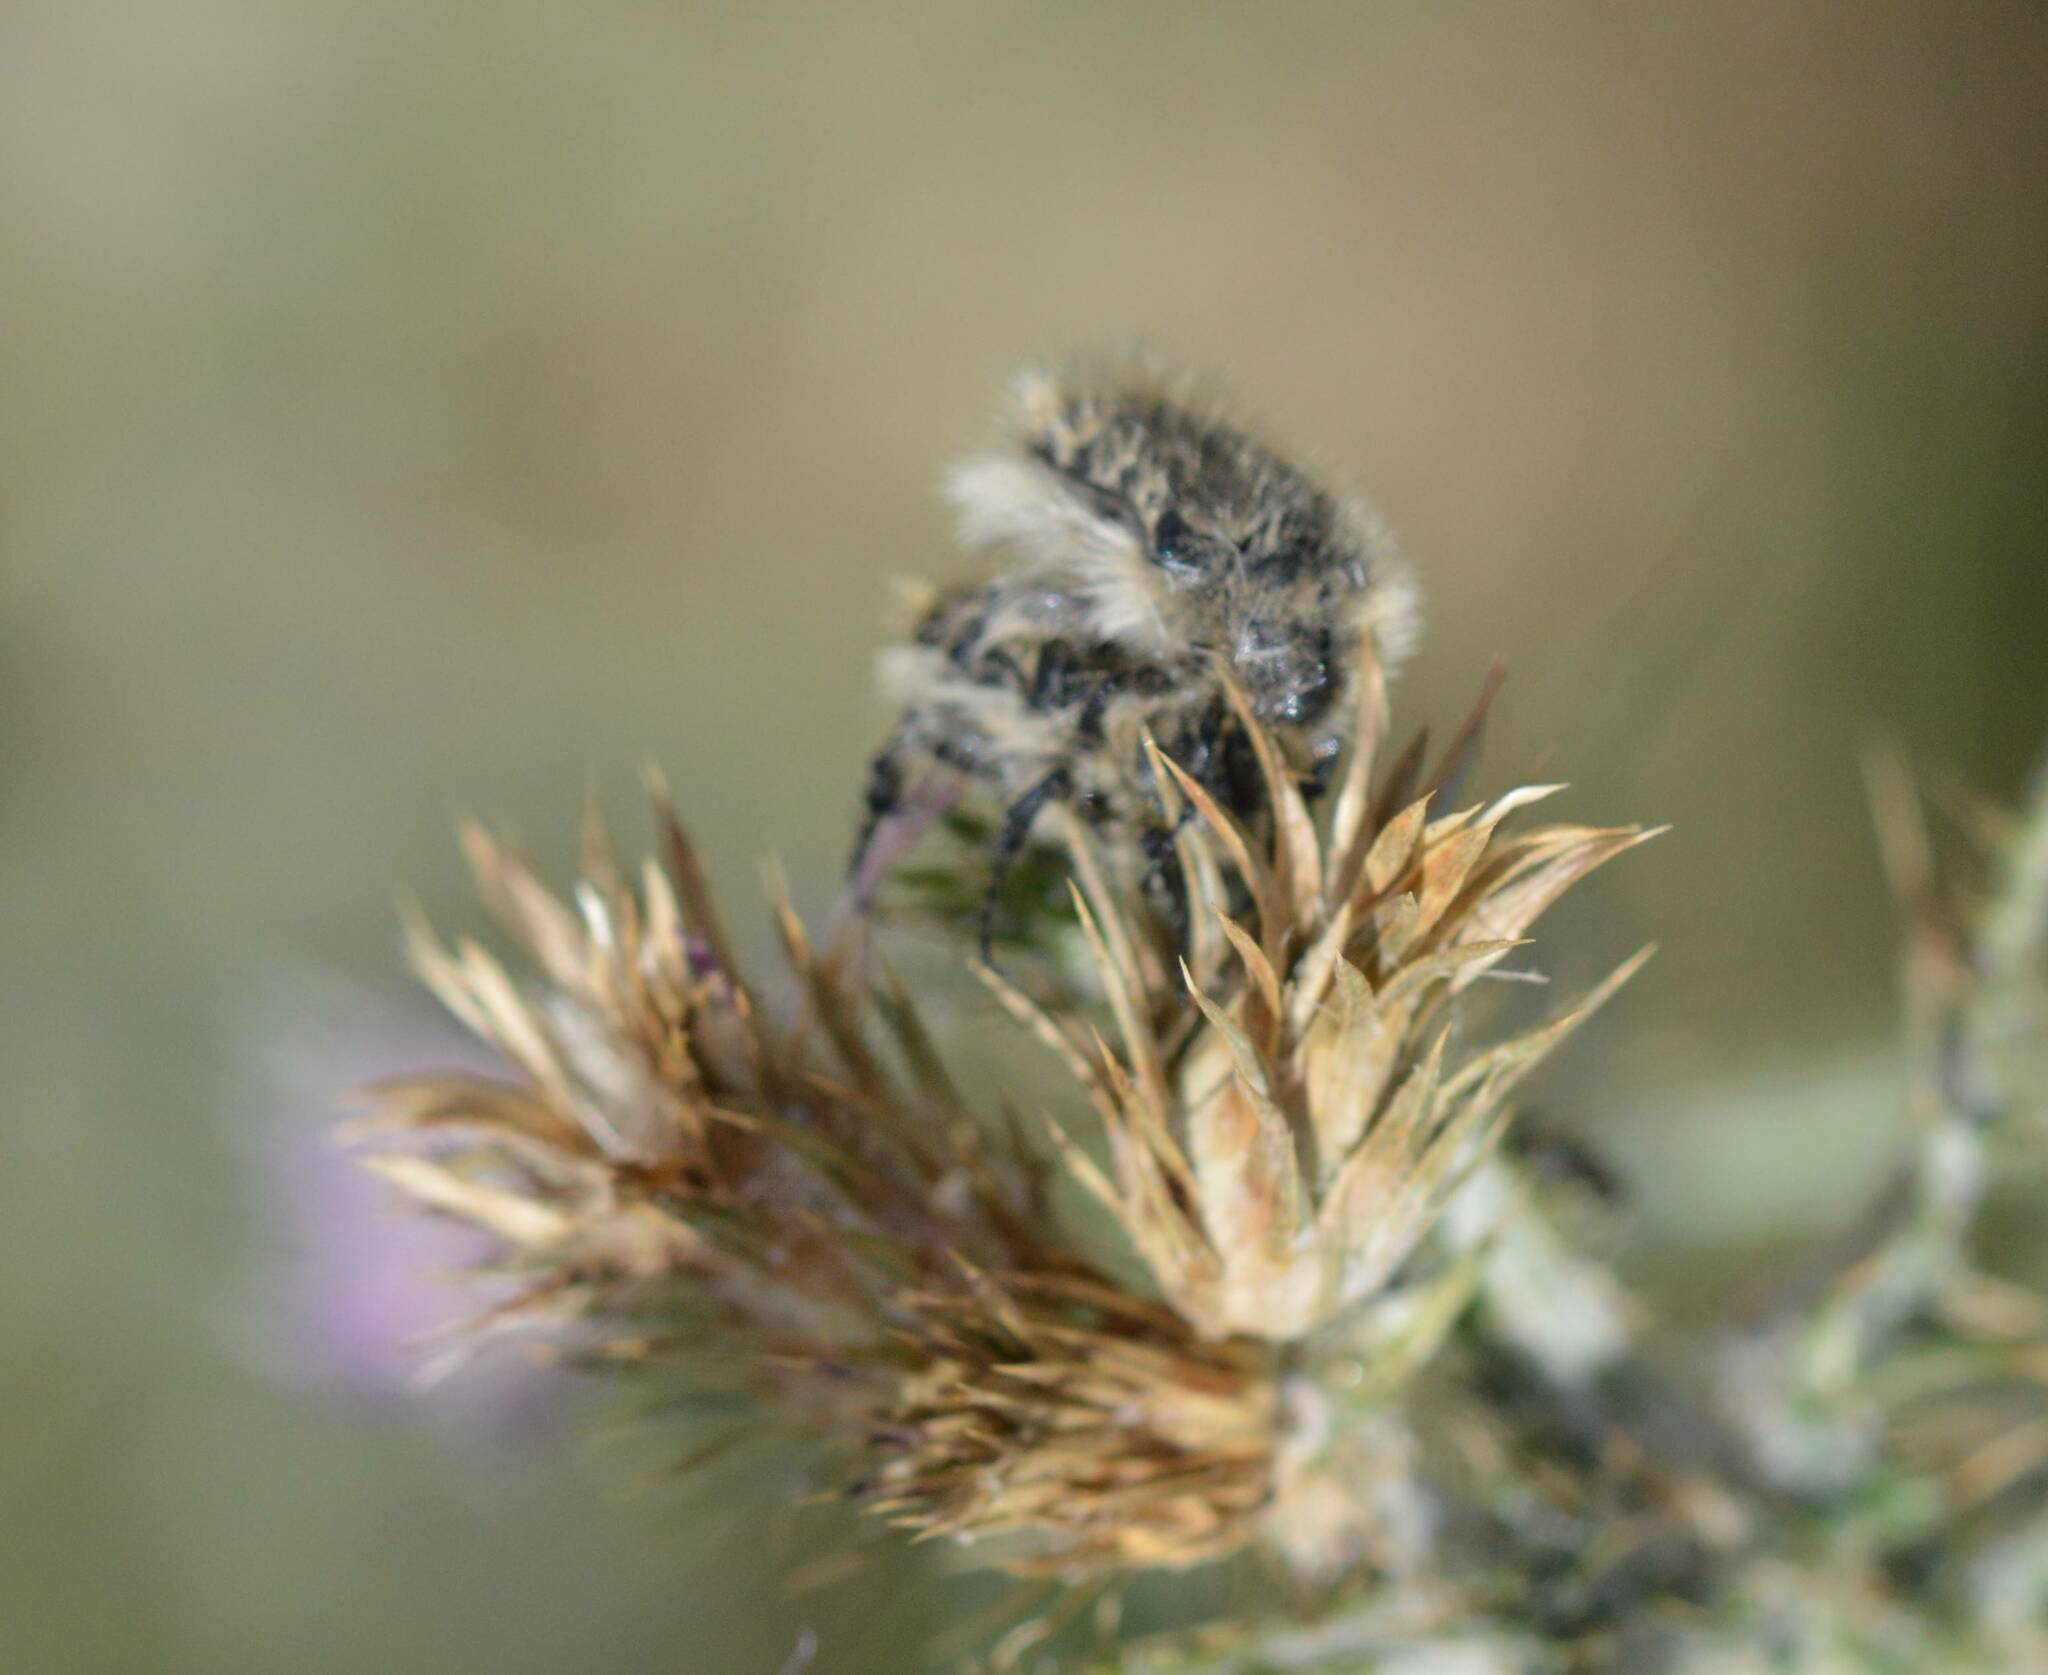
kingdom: Animalia
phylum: Arthropoda
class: Insecta
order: Coleoptera
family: Scarabaeidae
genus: Tropinota
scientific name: Tropinota squalida
